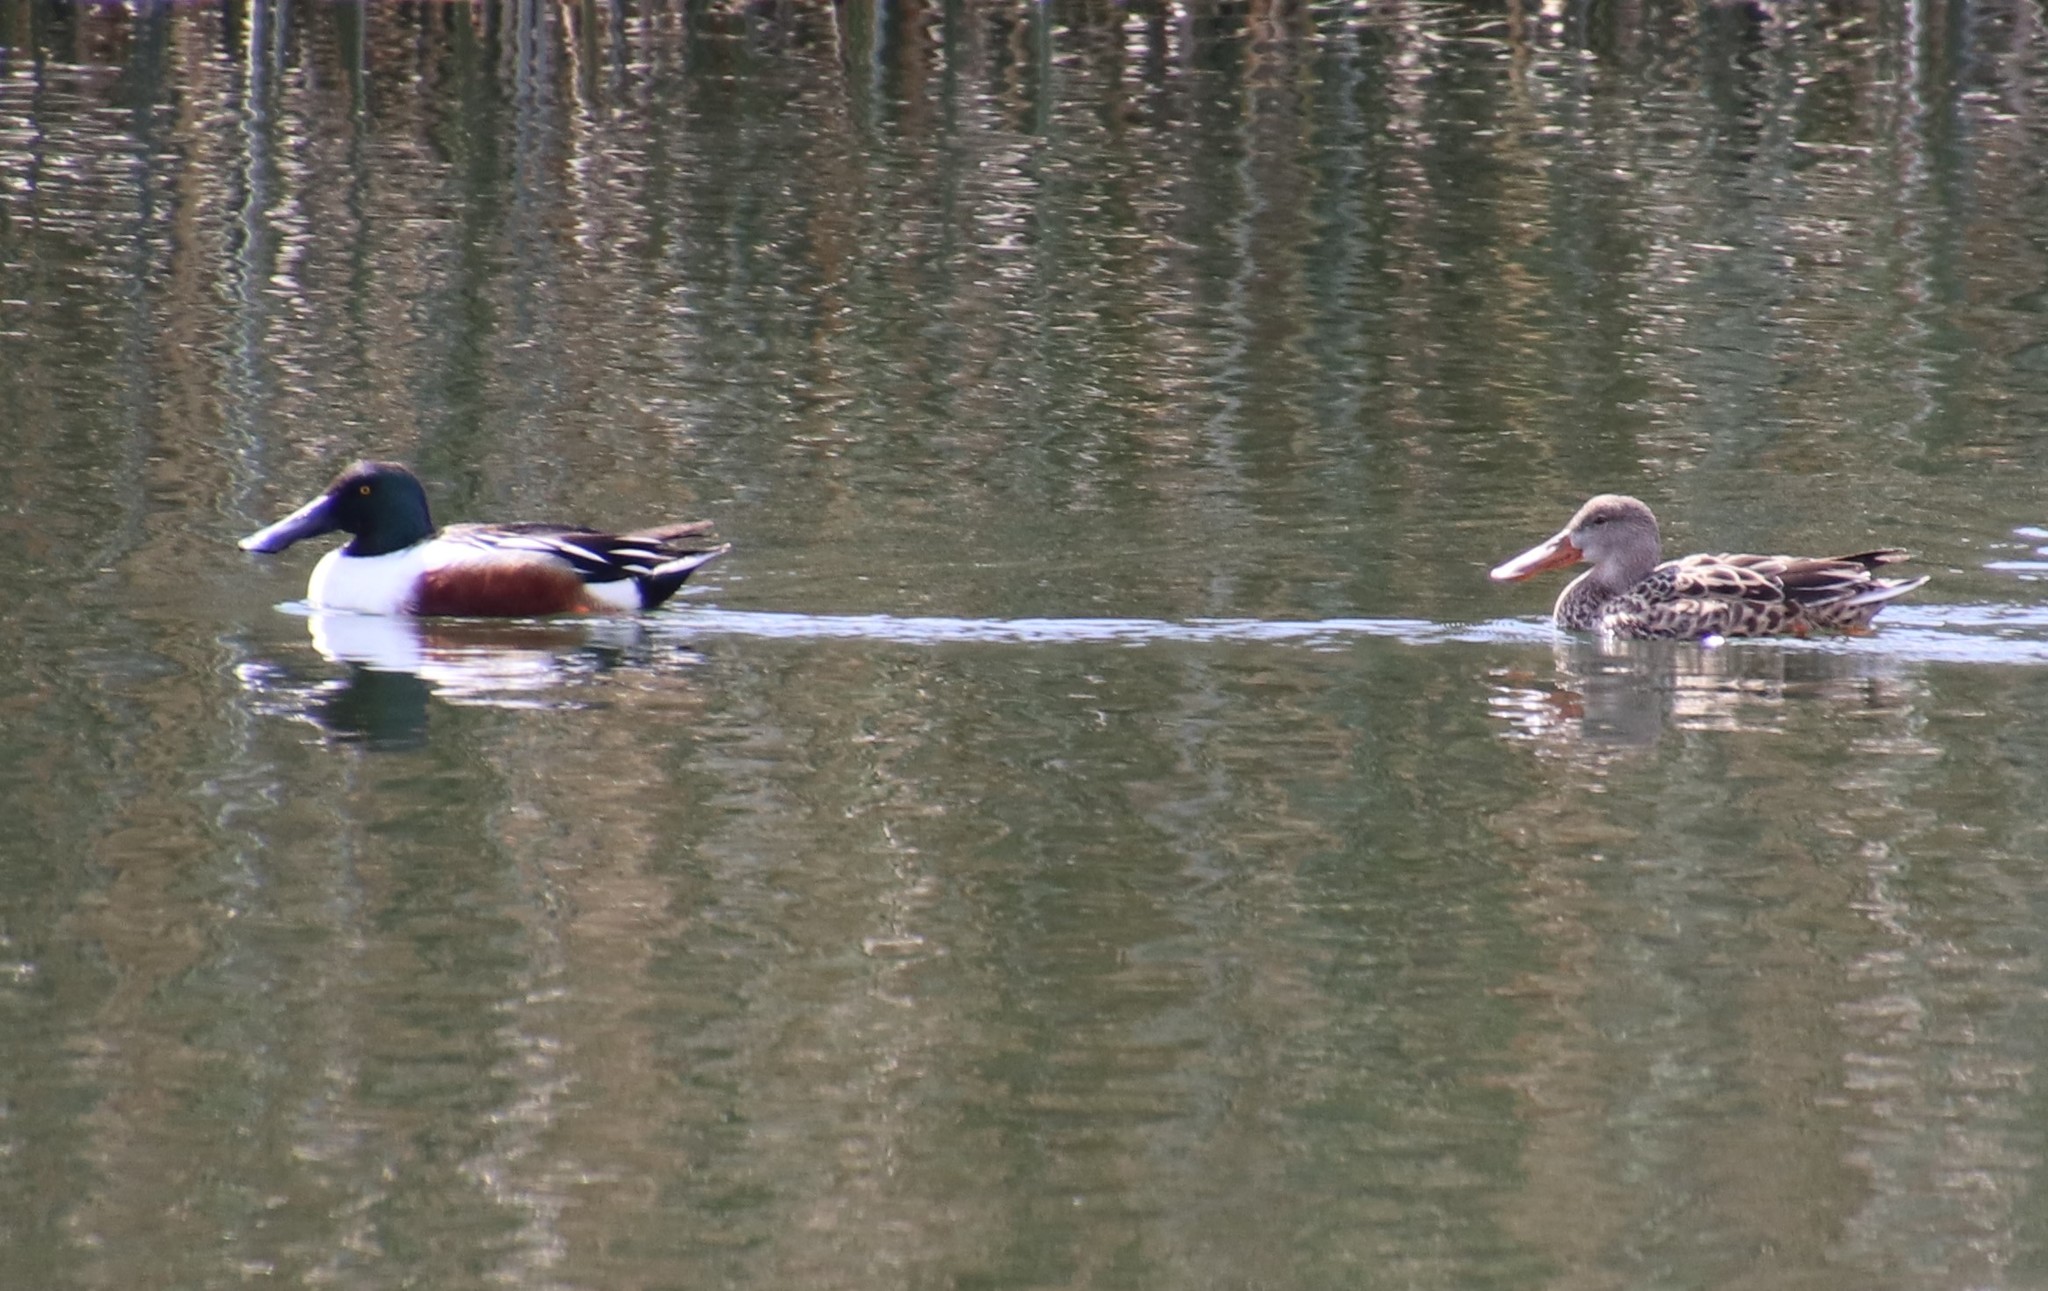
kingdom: Animalia
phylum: Chordata
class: Aves
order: Anseriformes
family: Anatidae
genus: Spatula
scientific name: Spatula clypeata
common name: Northern shoveler
